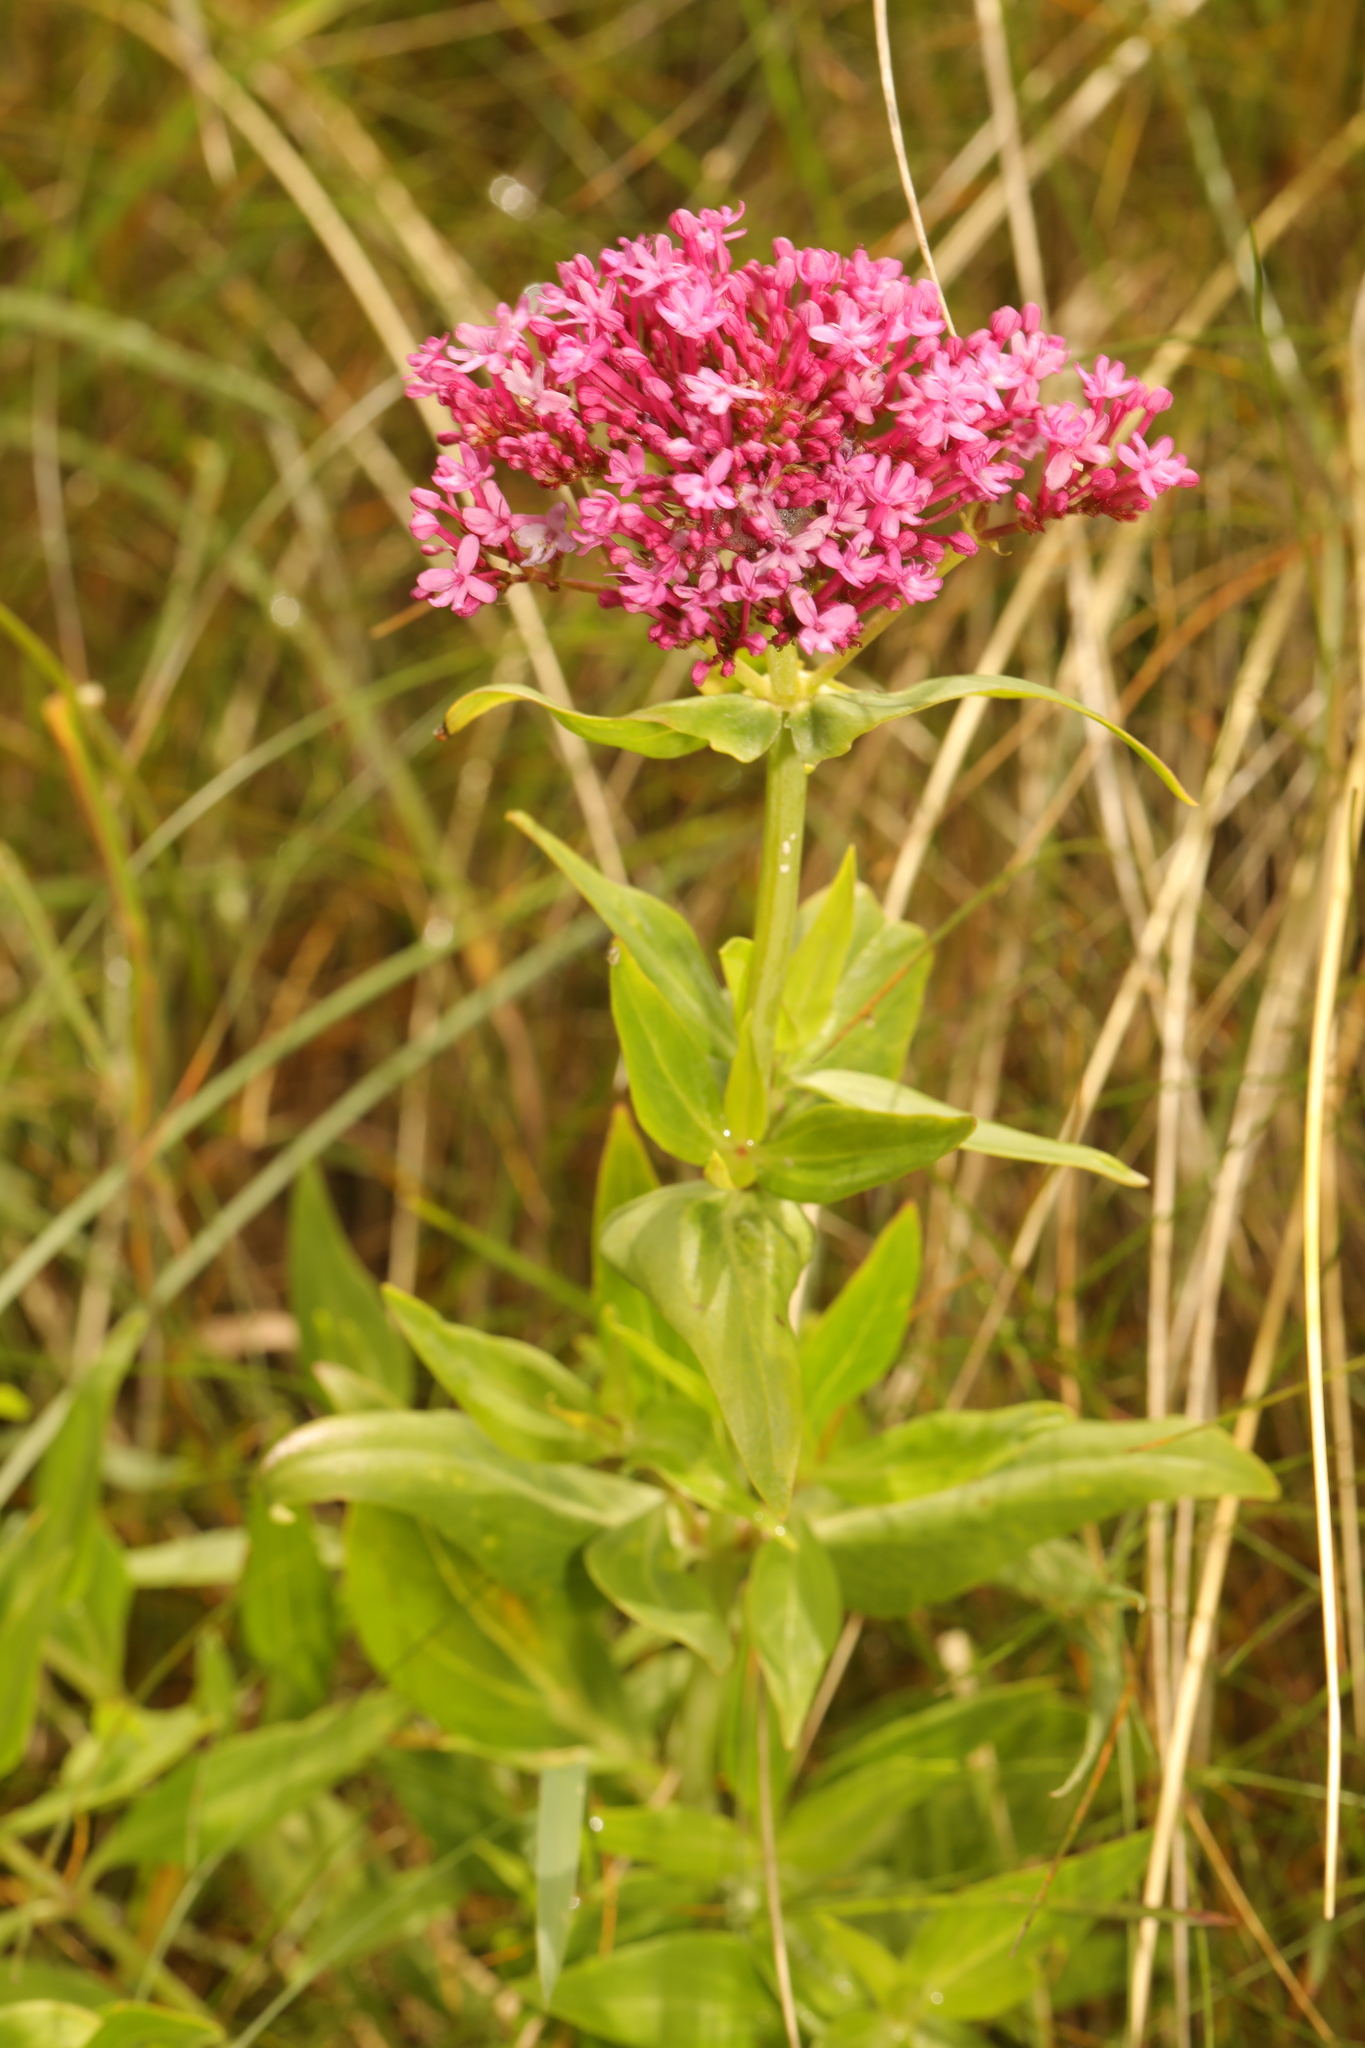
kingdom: Plantae
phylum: Tracheophyta
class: Magnoliopsida
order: Dipsacales
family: Caprifoliaceae
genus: Centranthus
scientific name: Centranthus ruber
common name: Red valerian
